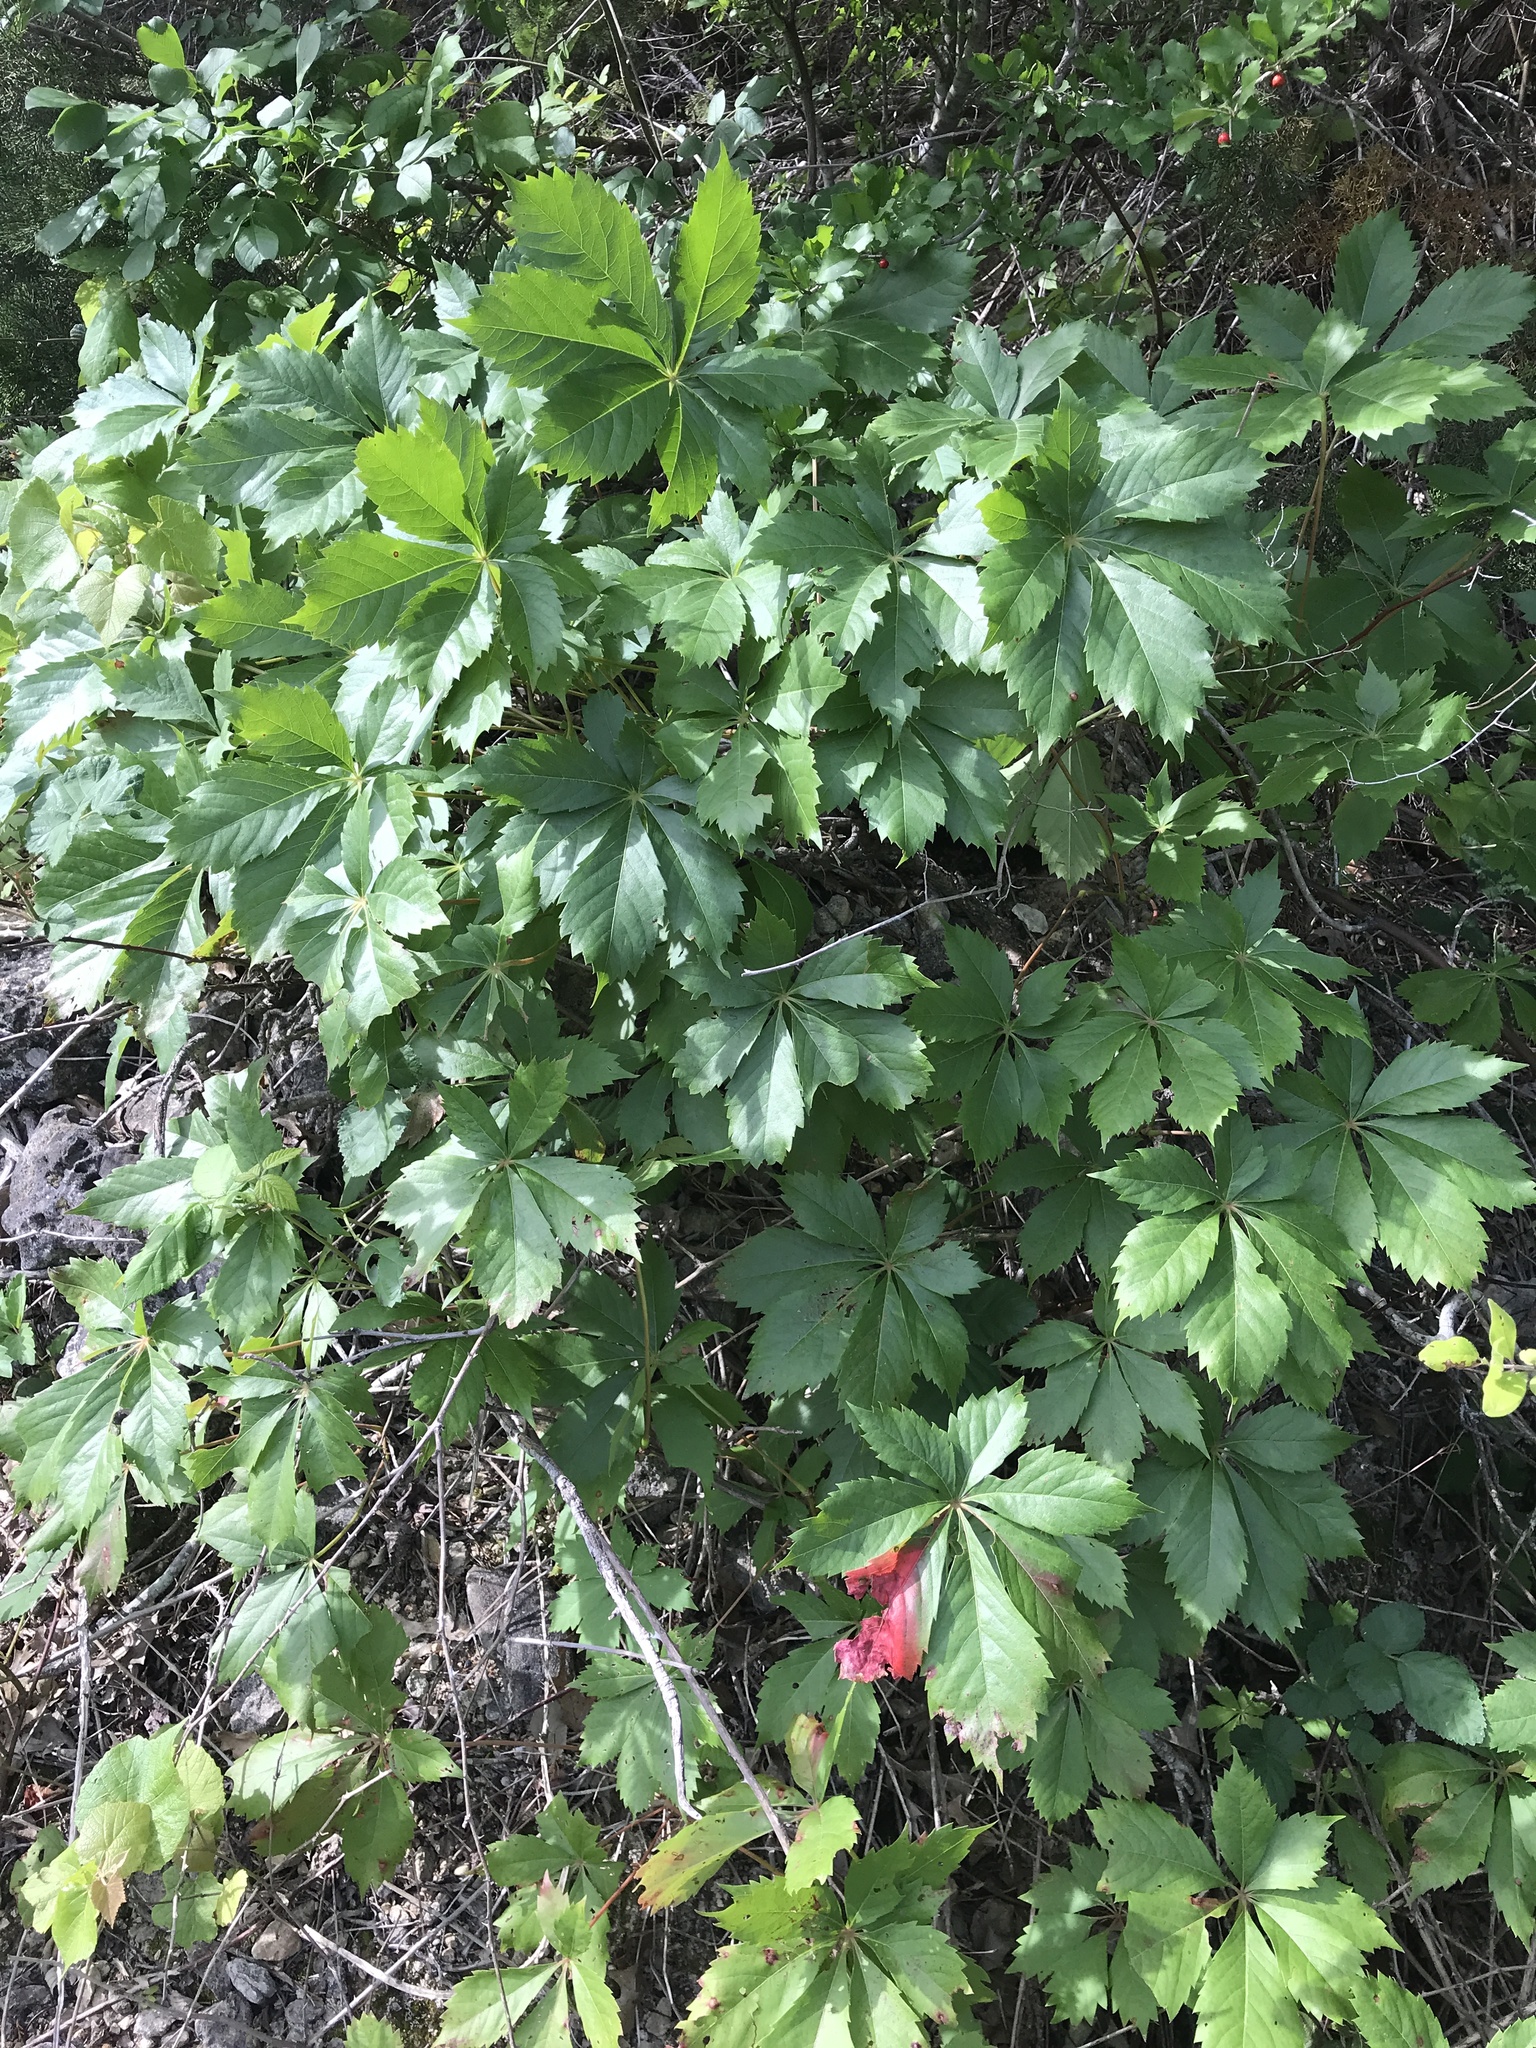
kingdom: Plantae
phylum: Tracheophyta
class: Magnoliopsida
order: Vitales
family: Vitaceae
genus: Parthenocissus
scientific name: Parthenocissus heptaphylla
